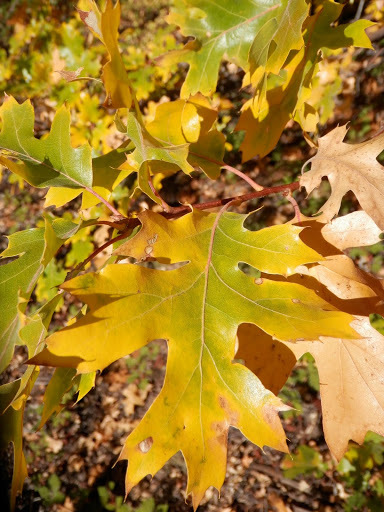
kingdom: Plantae
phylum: Tracheophyta
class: Magnoliopsida
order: Fagales
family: Fagaceae
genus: Quercus
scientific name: Quercus kelloggii
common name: California black oak
